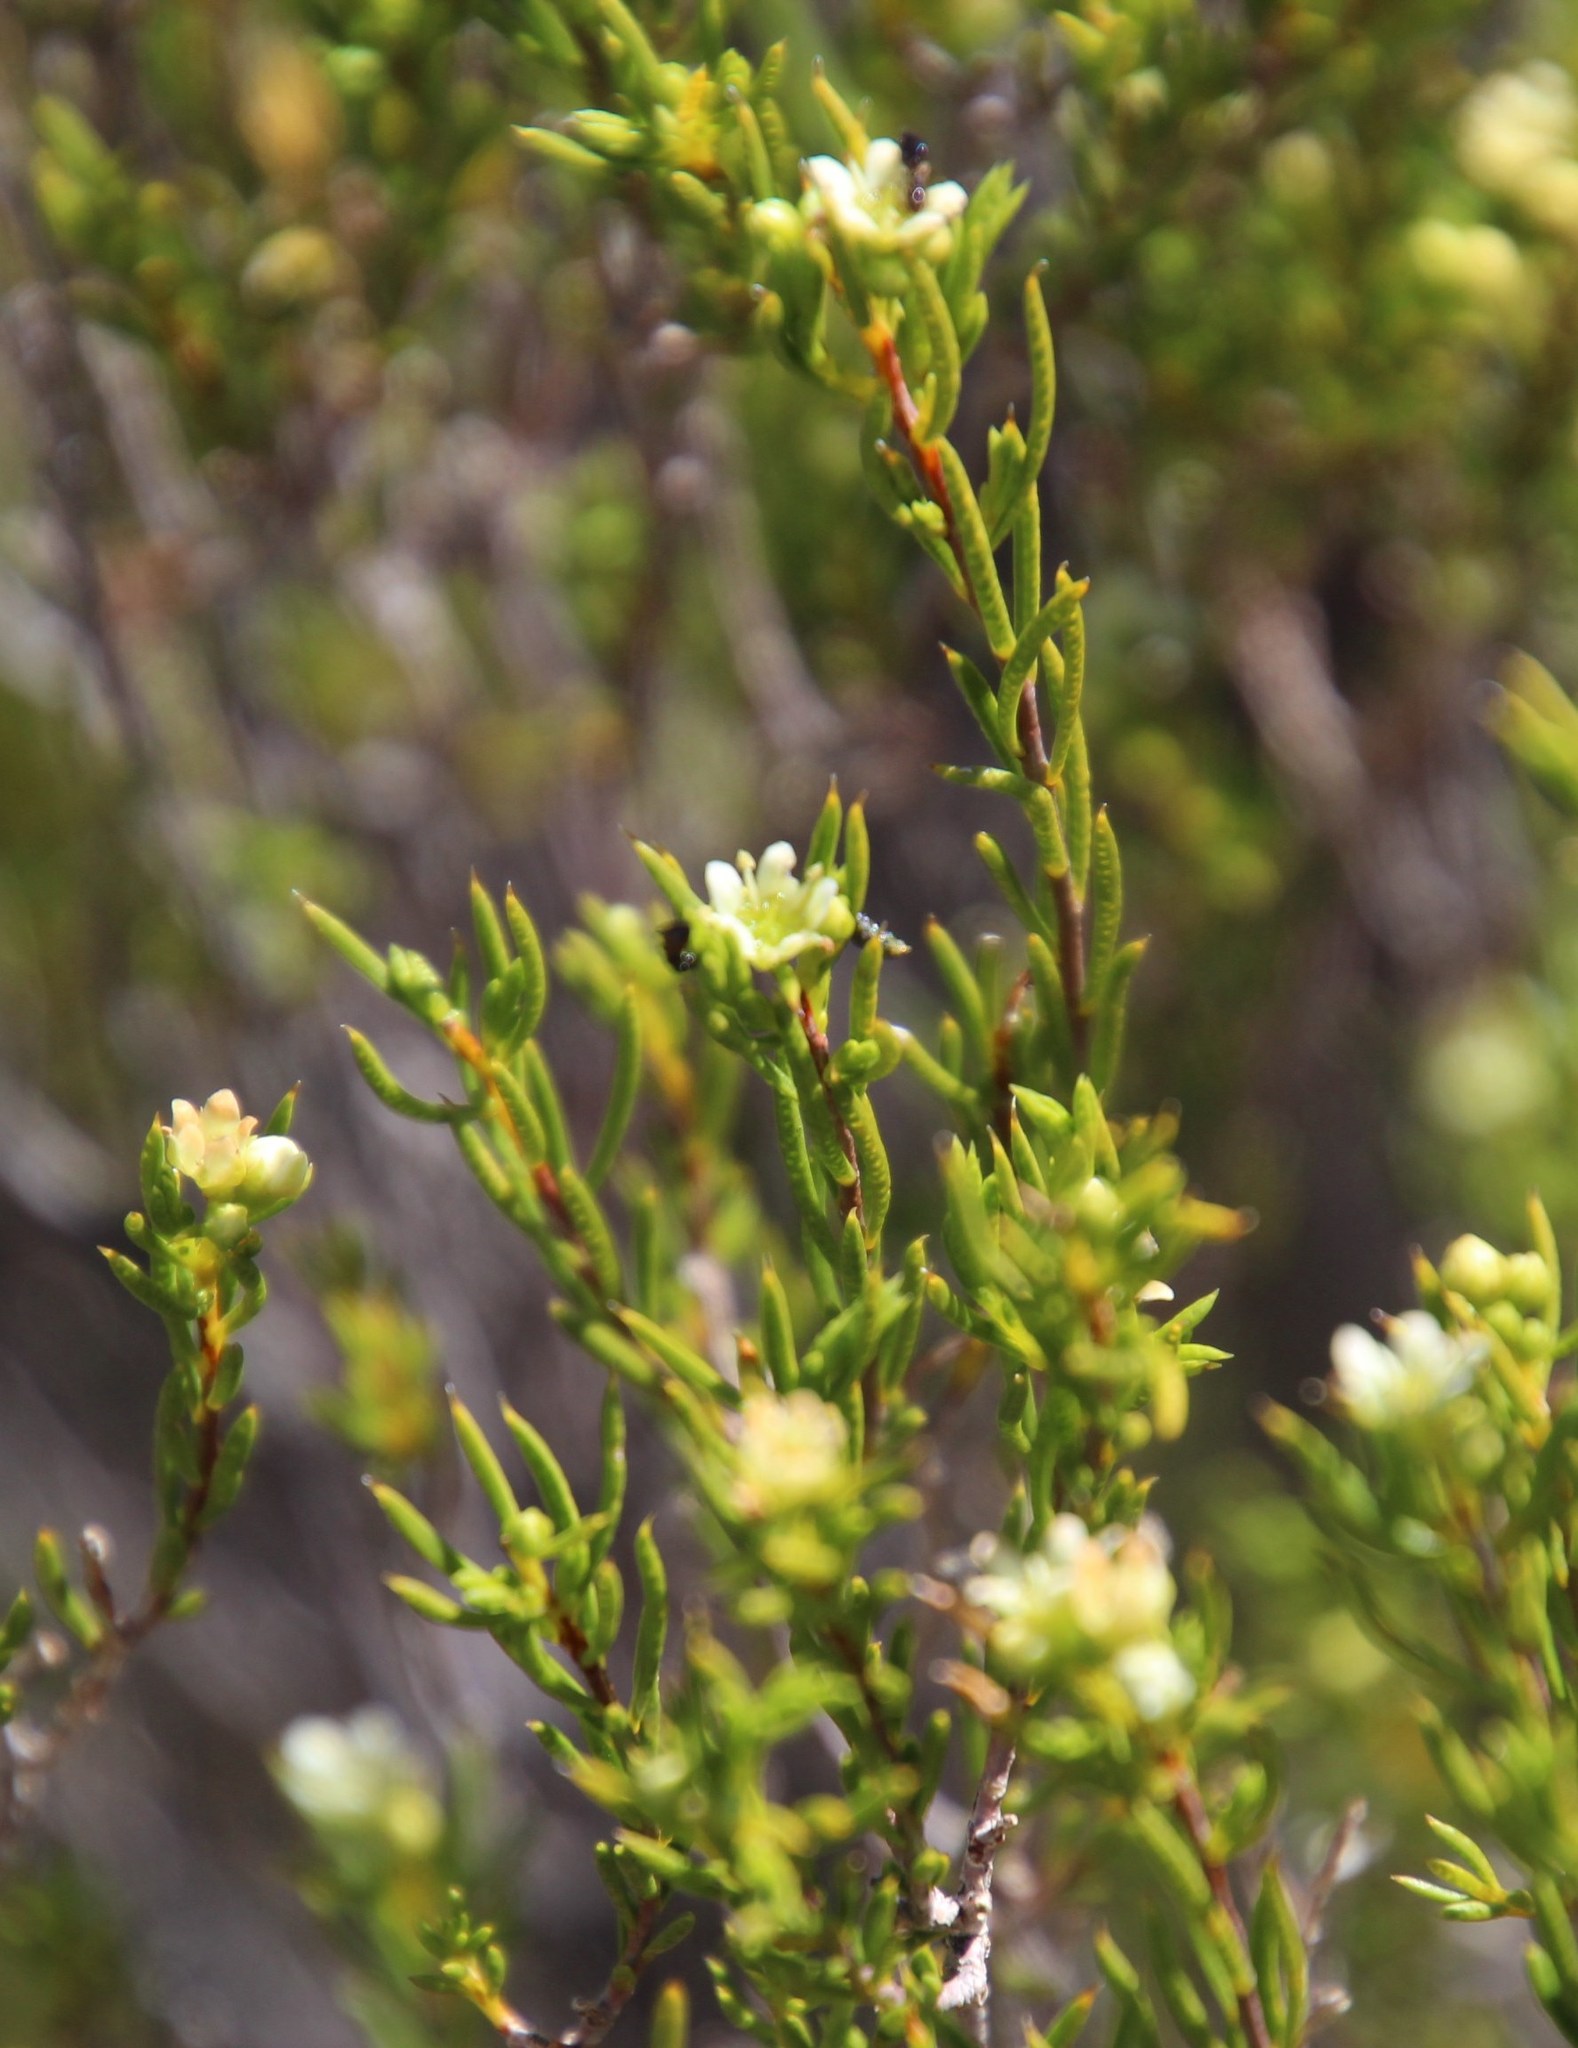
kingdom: Plantae
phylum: Tracheophyta
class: Magnoliopsida
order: Sapindales
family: Rutaceae
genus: Diosma
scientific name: Diosma acmaeophylla
